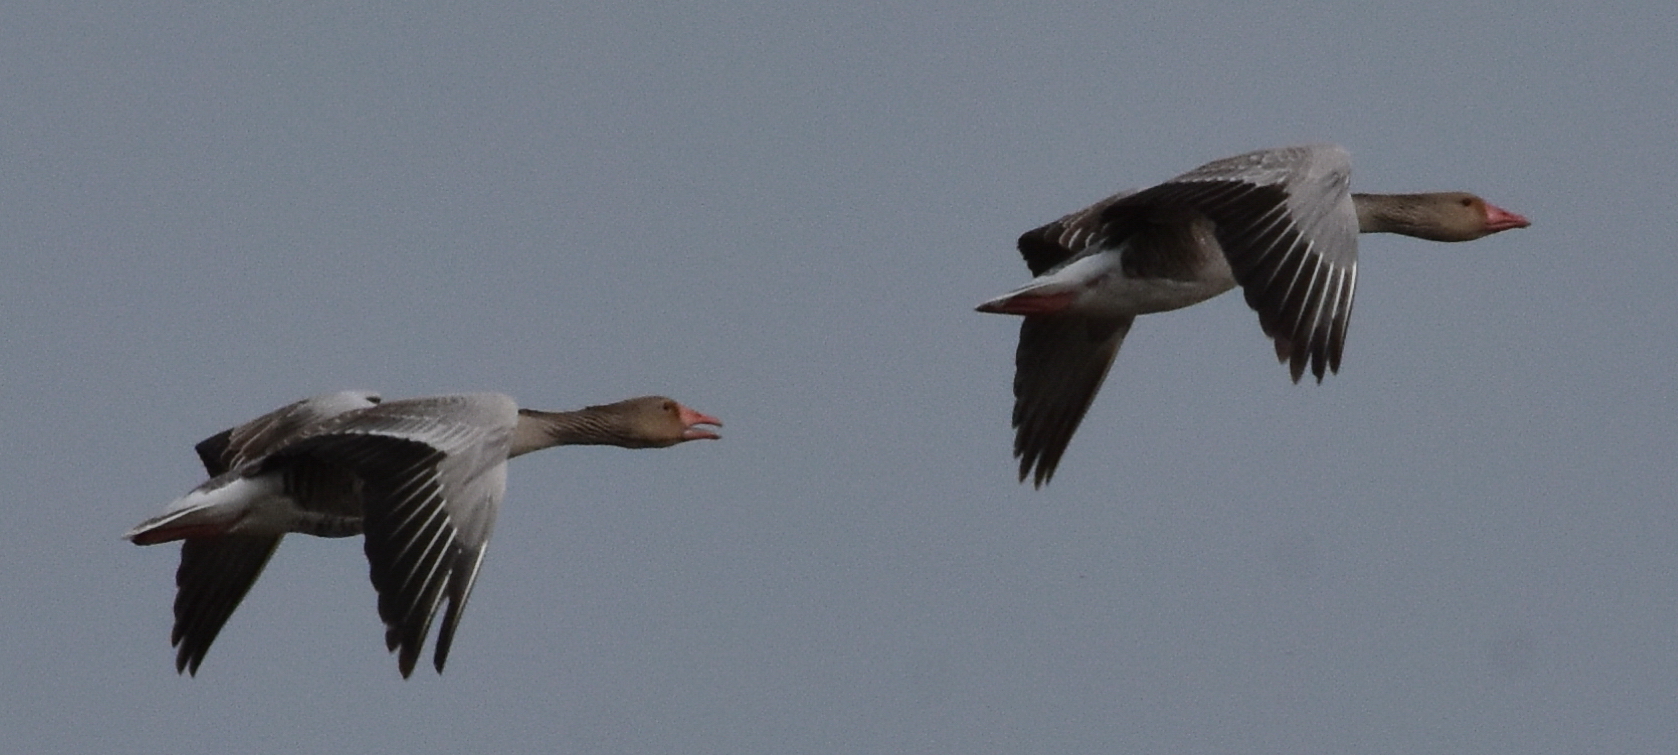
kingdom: Animalia
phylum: Chordata
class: Aves
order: Anseriformes
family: Anatidae
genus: Anser
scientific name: Anser anser
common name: Greylag goose
